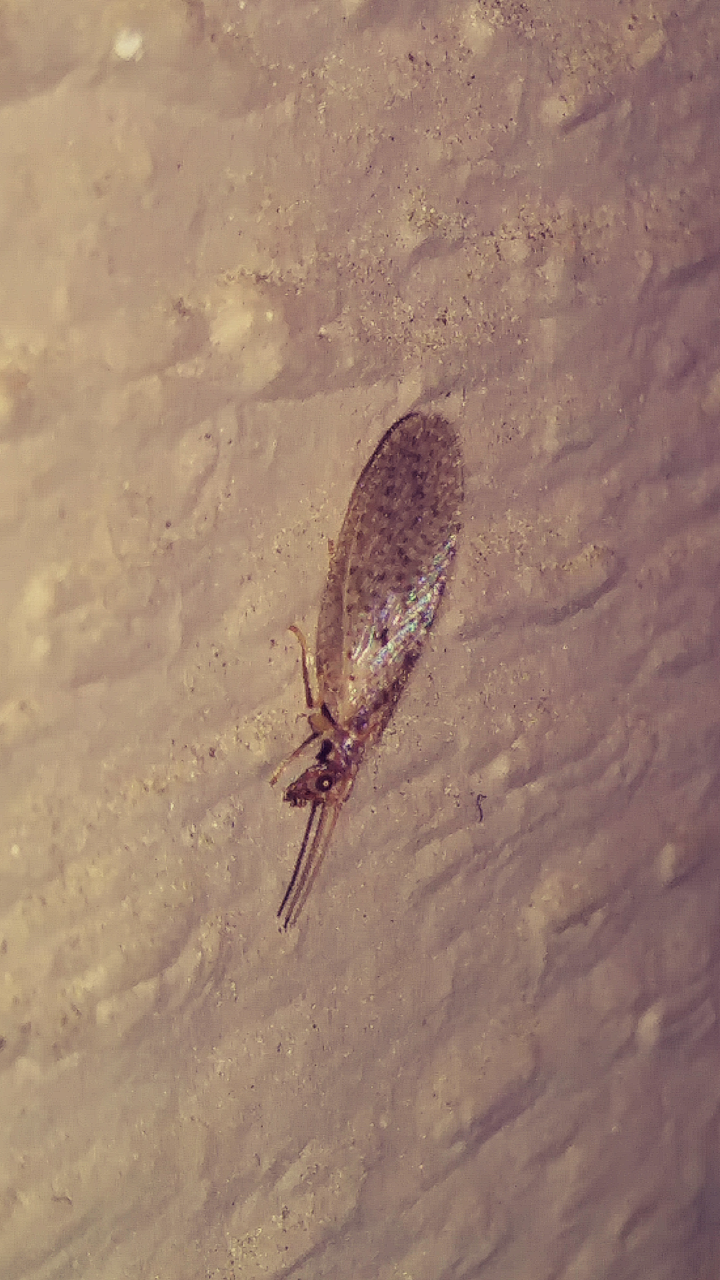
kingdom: Animalia
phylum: Arthropoda
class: Insecta
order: Neuroptera
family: Hemerobiidae
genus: Micromus
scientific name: Micromus subanticus
